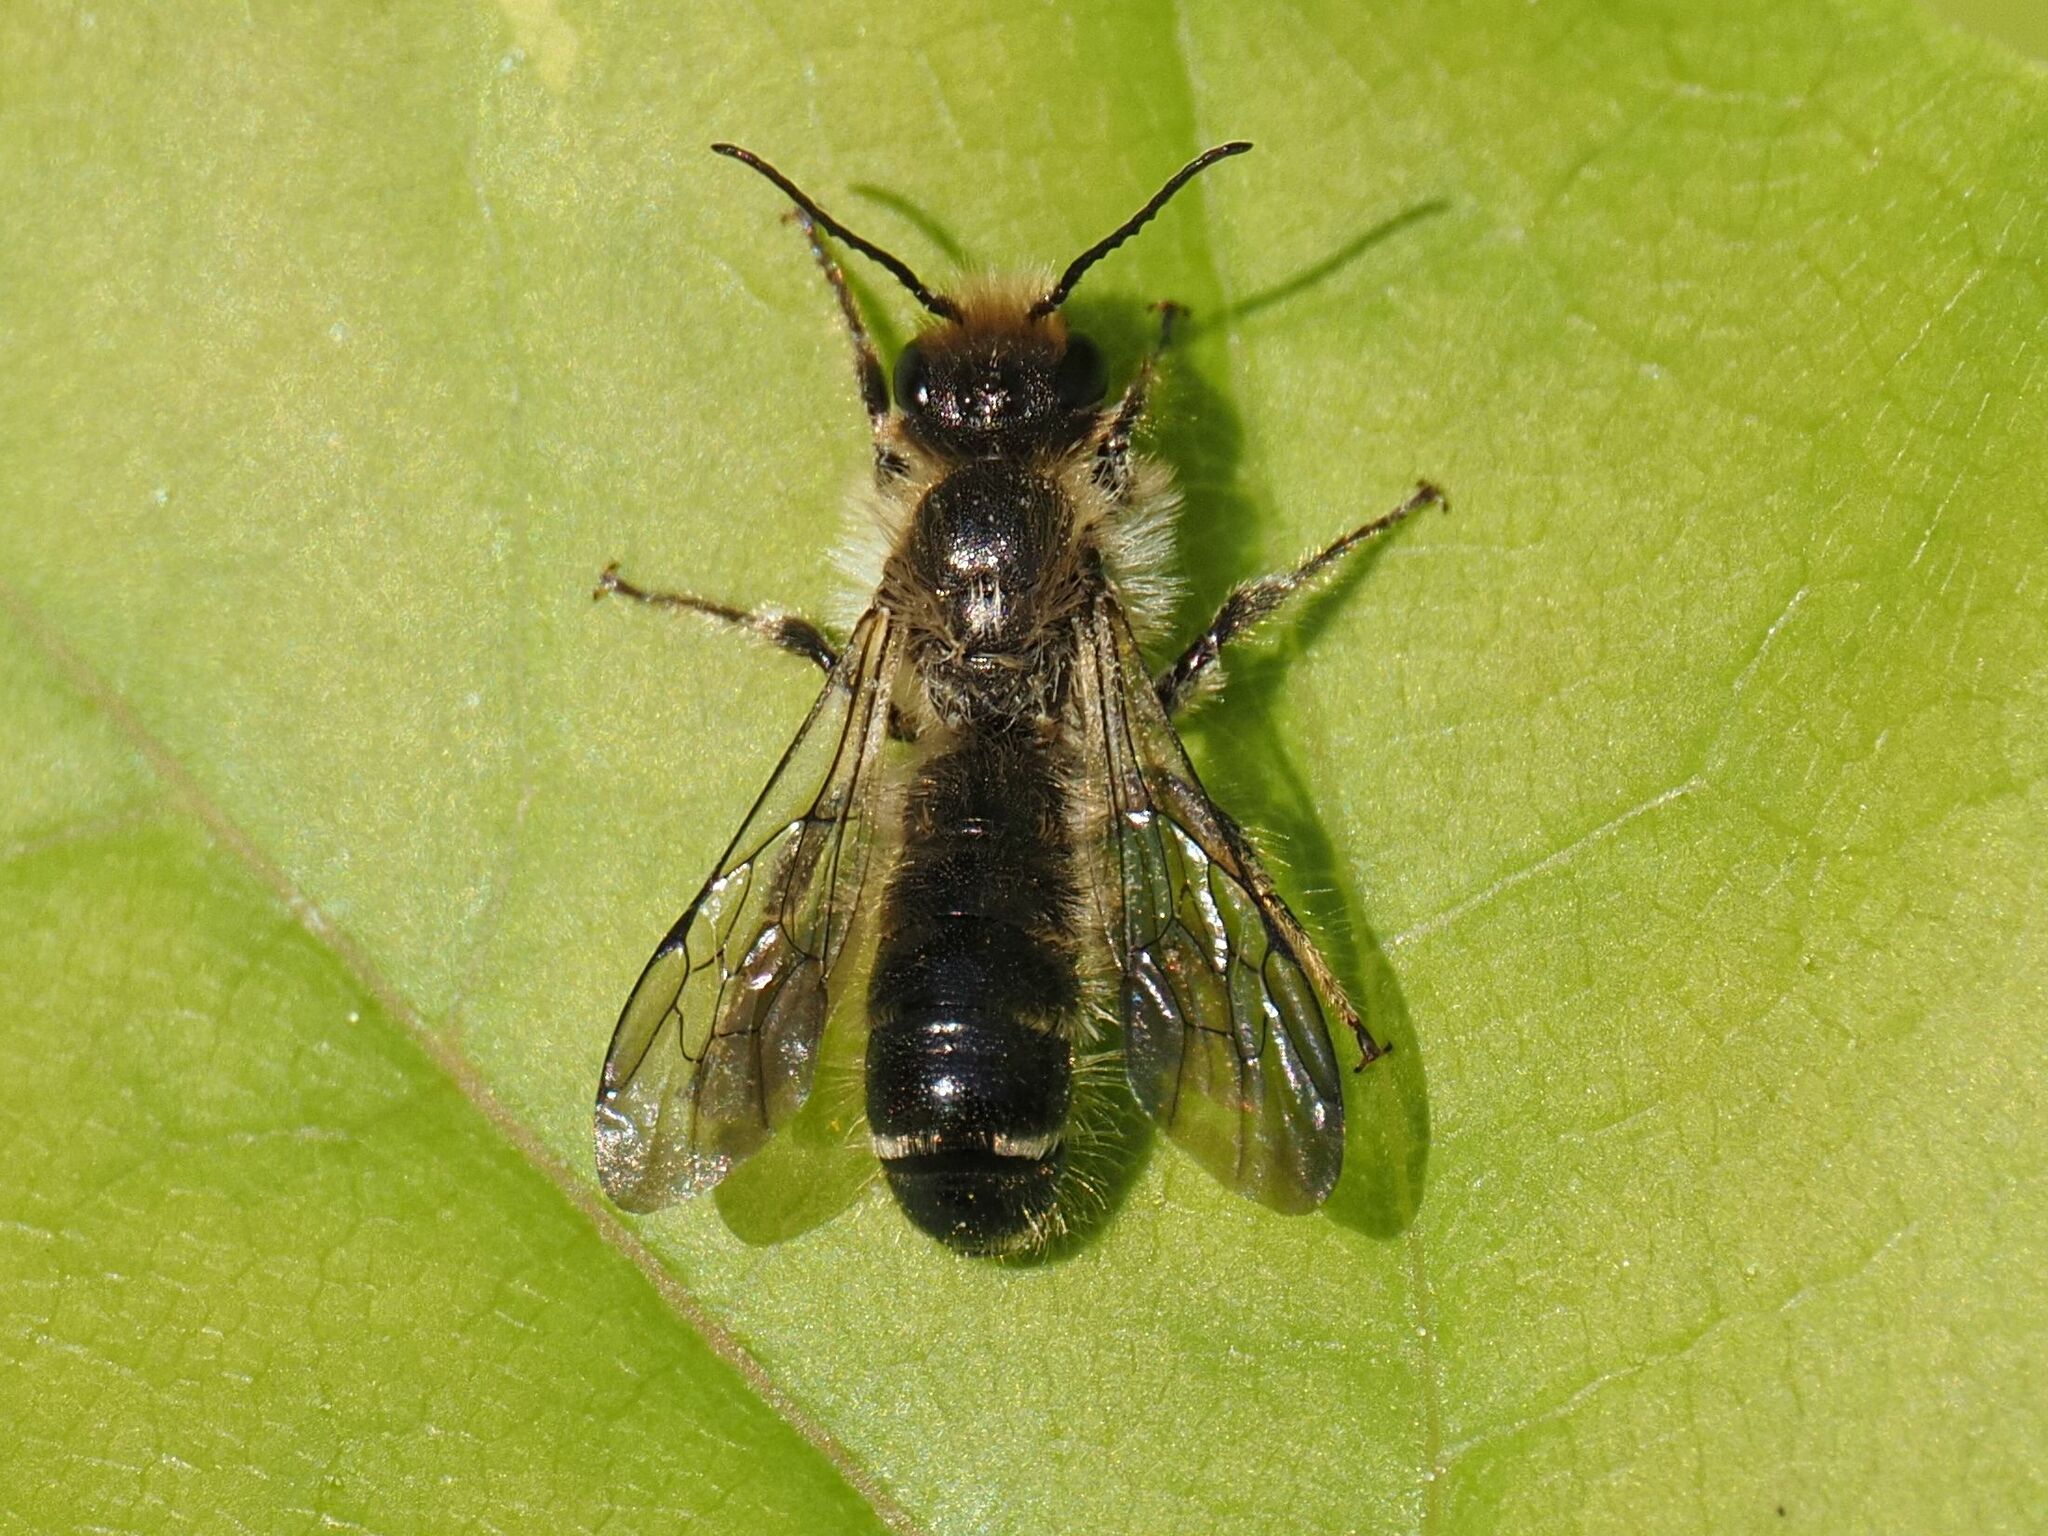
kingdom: Animalia
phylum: Arthropoda
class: Insecta
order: Hymenoptera
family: Megachilidae
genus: Chelostoma
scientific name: Chelostoma florisomne
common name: Sleepy carpenter bee
